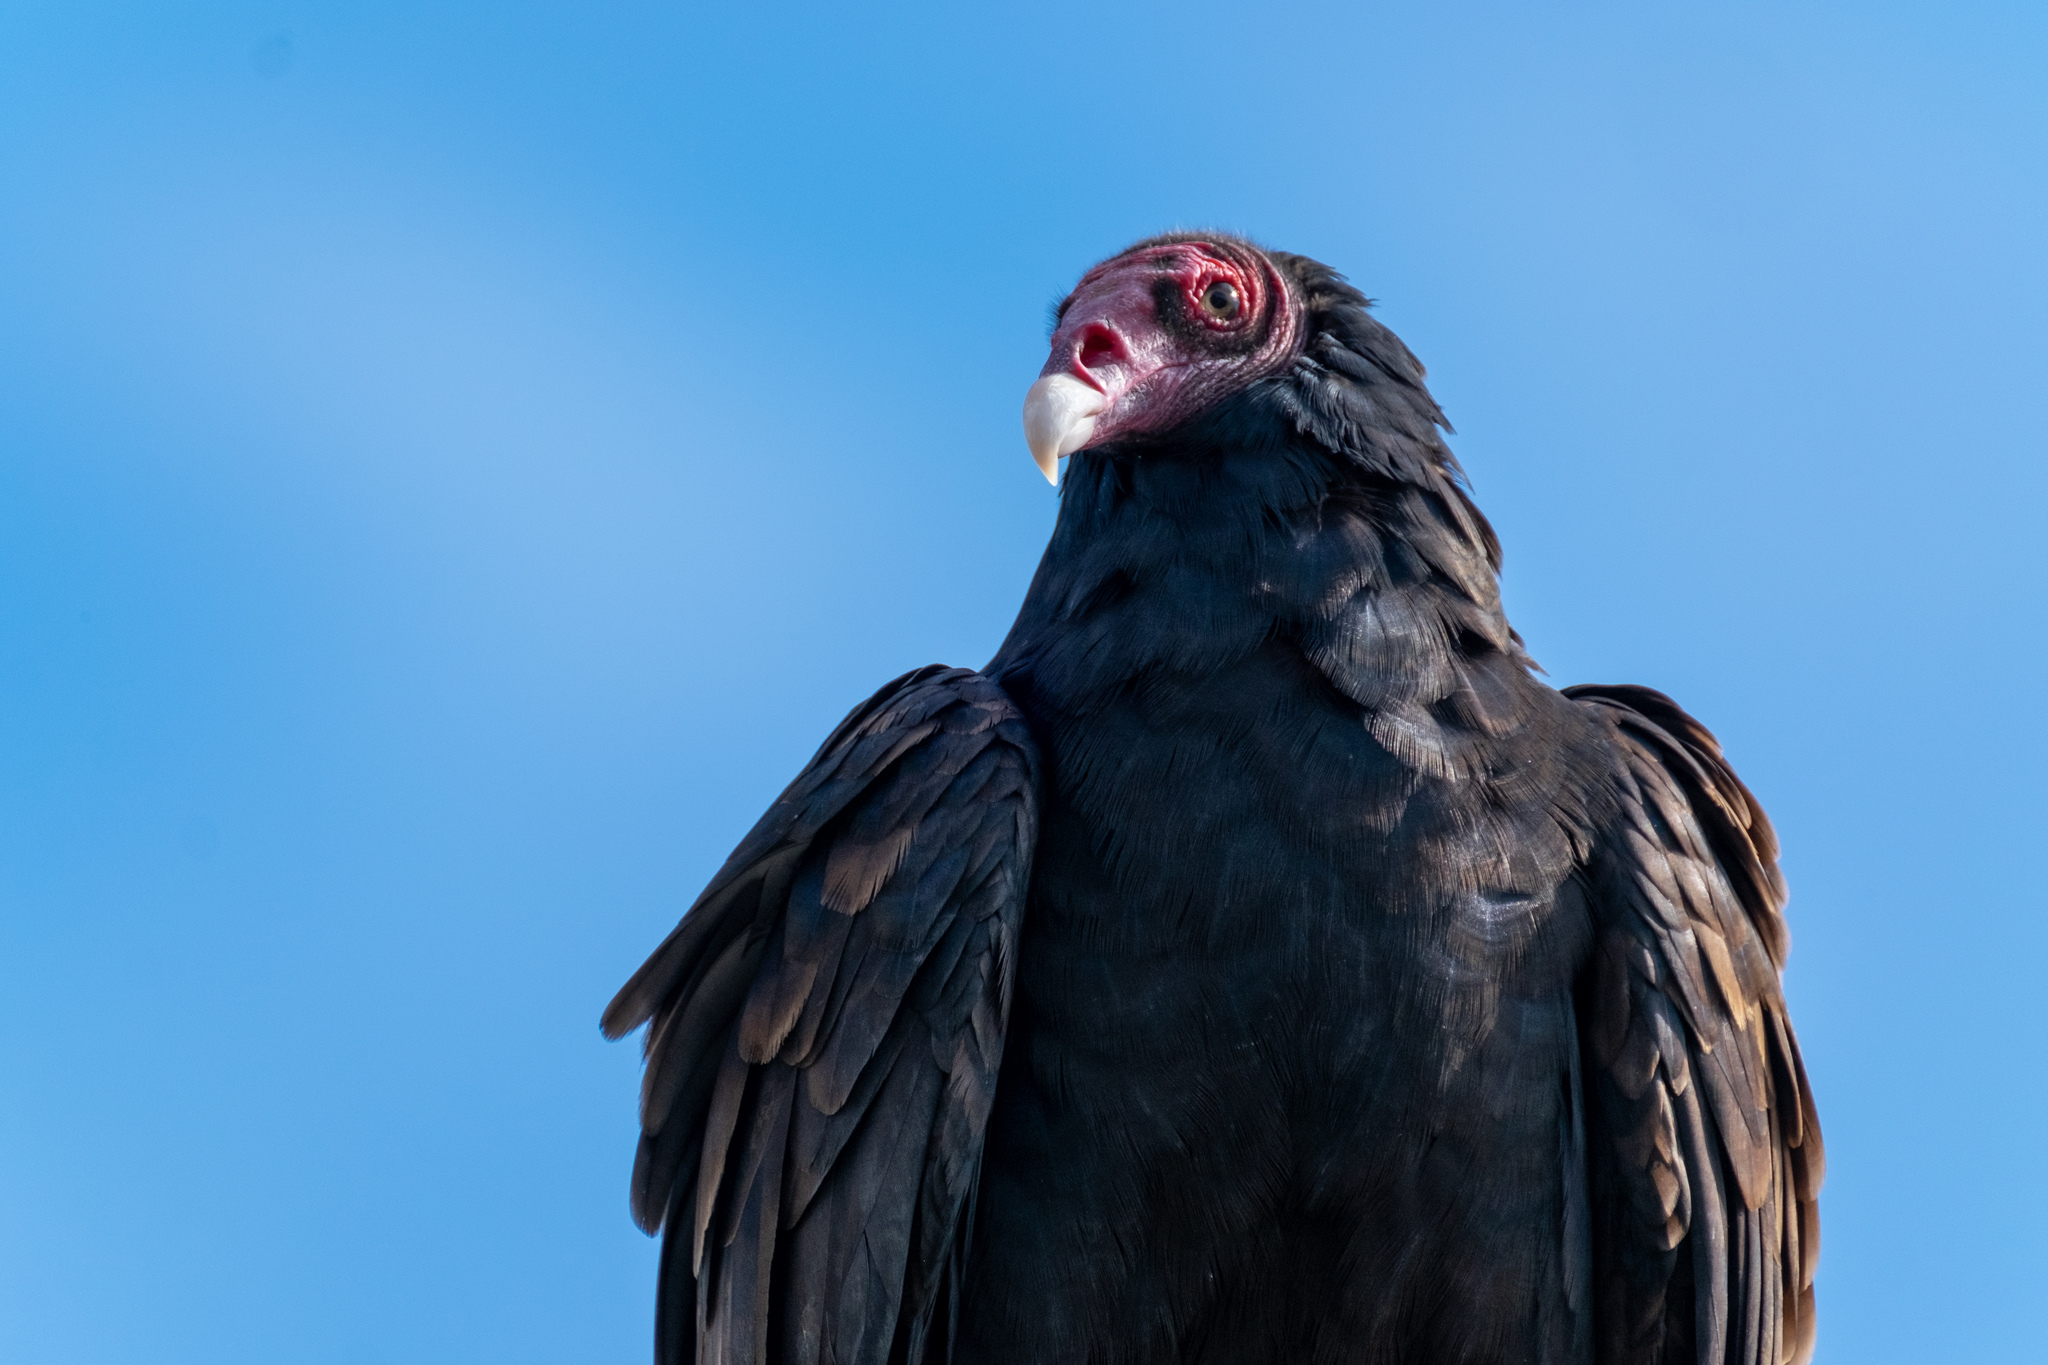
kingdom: Animalia
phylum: Chordata
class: Aves
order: Accipitriformes
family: Cathartidae
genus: Cathartes
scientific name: Cathartes aura
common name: Turkey vulture
